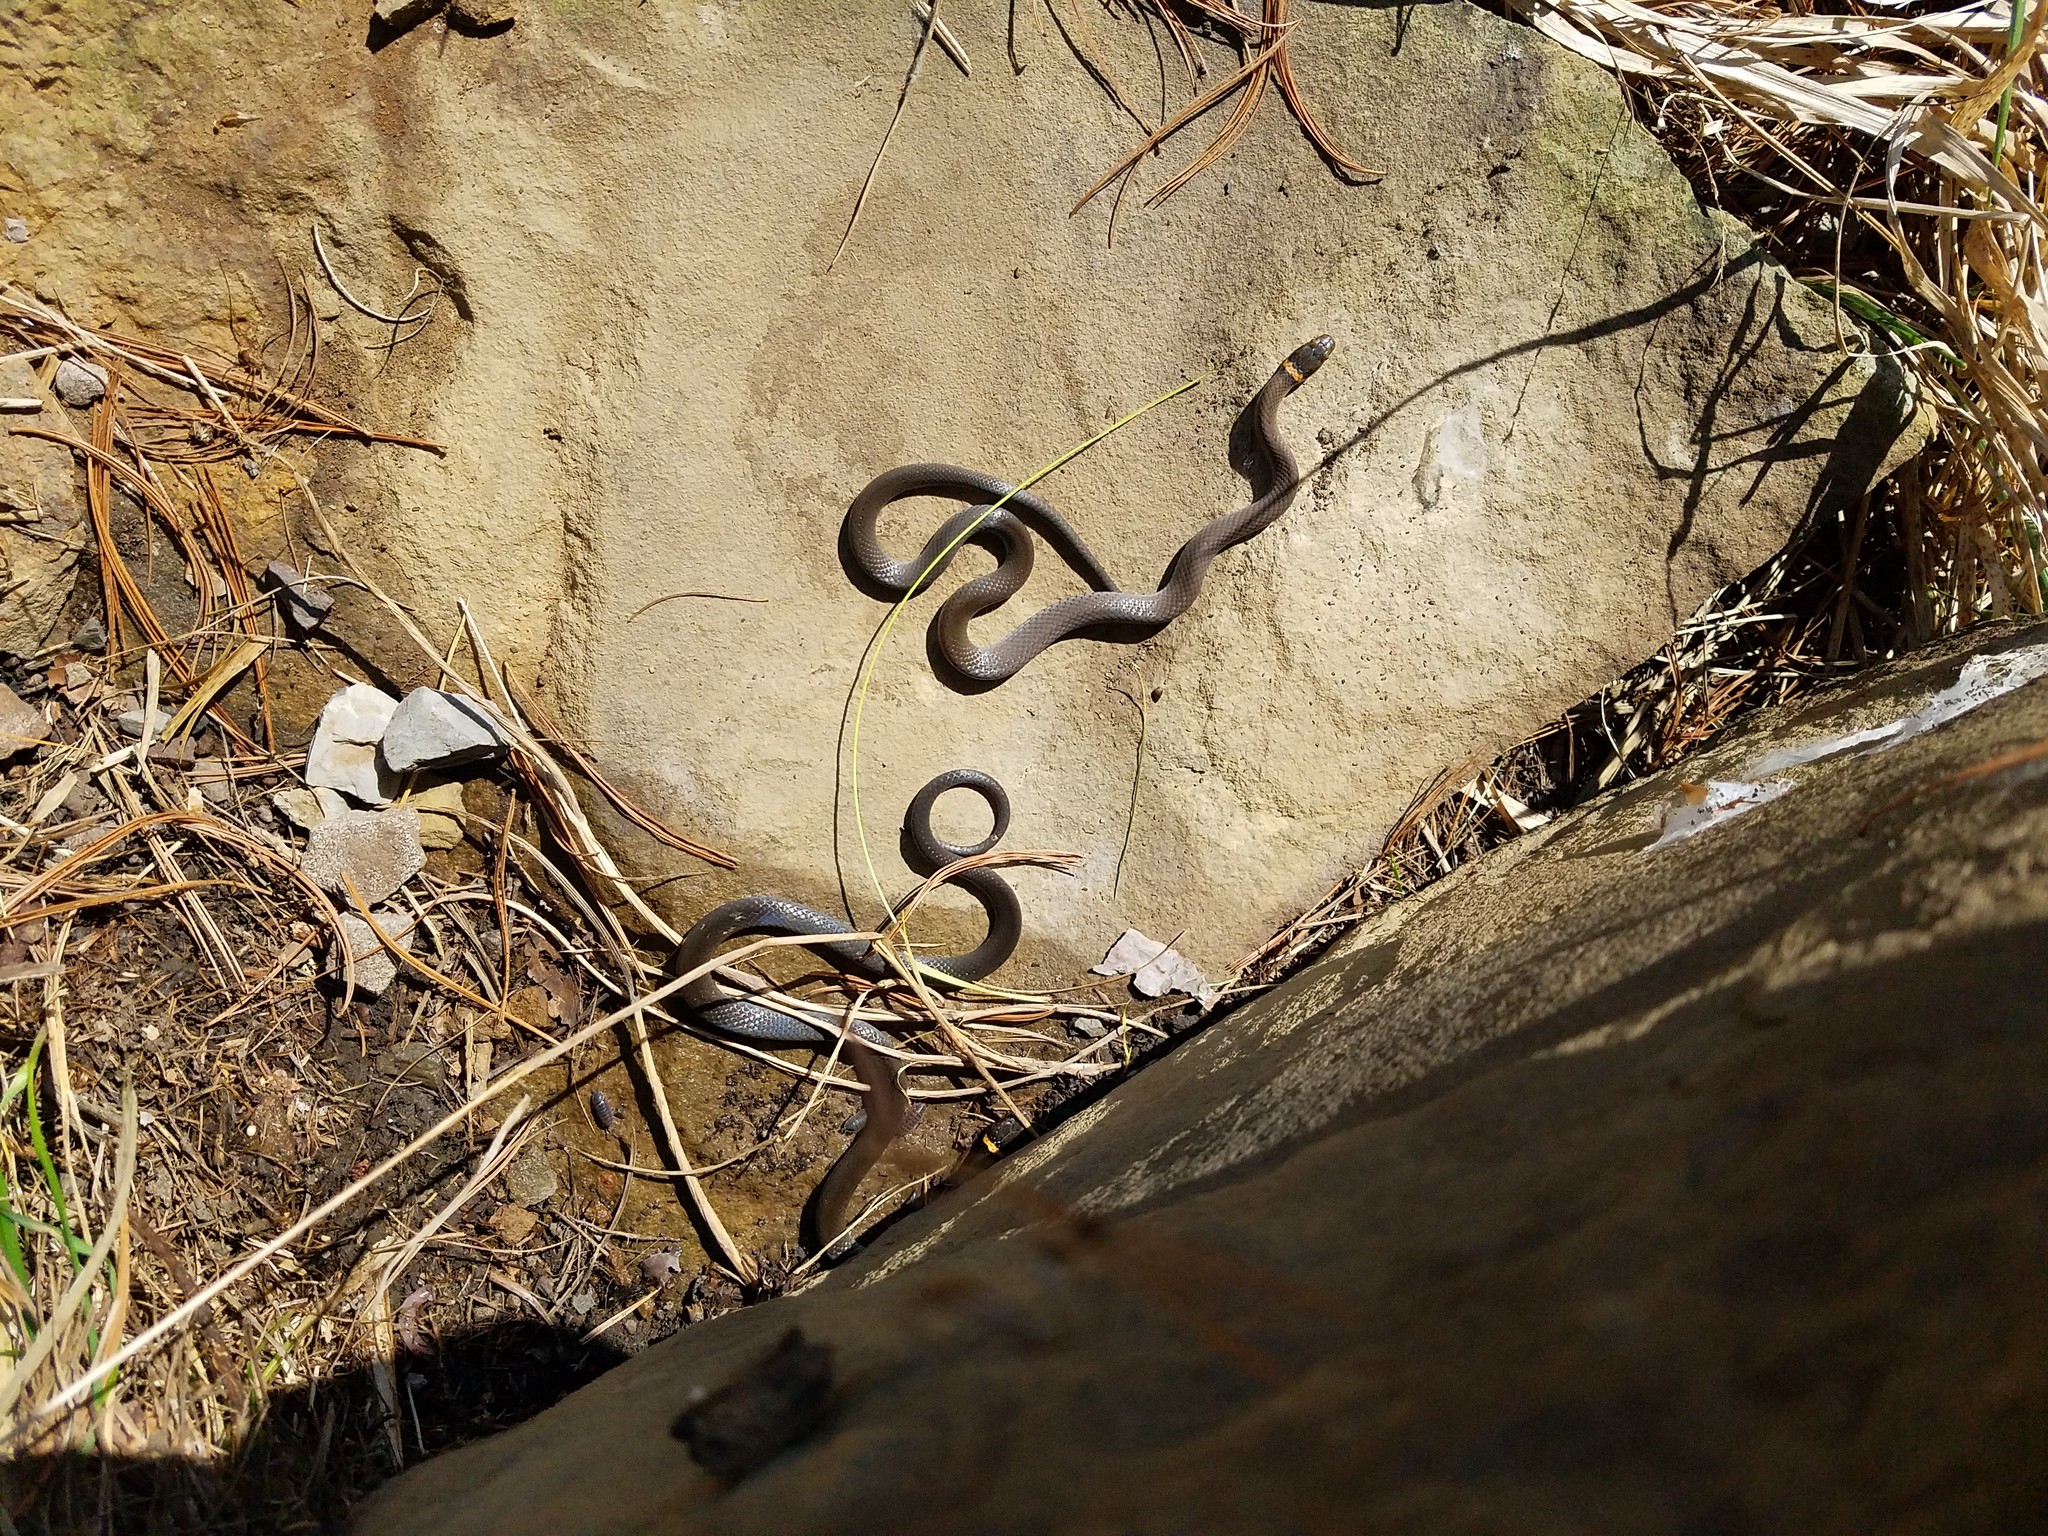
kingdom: Animalia
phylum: Chordata
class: Squamata
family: Colubridae
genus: Diadophis
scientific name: Diadophis punctatus
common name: Ringneck snake
